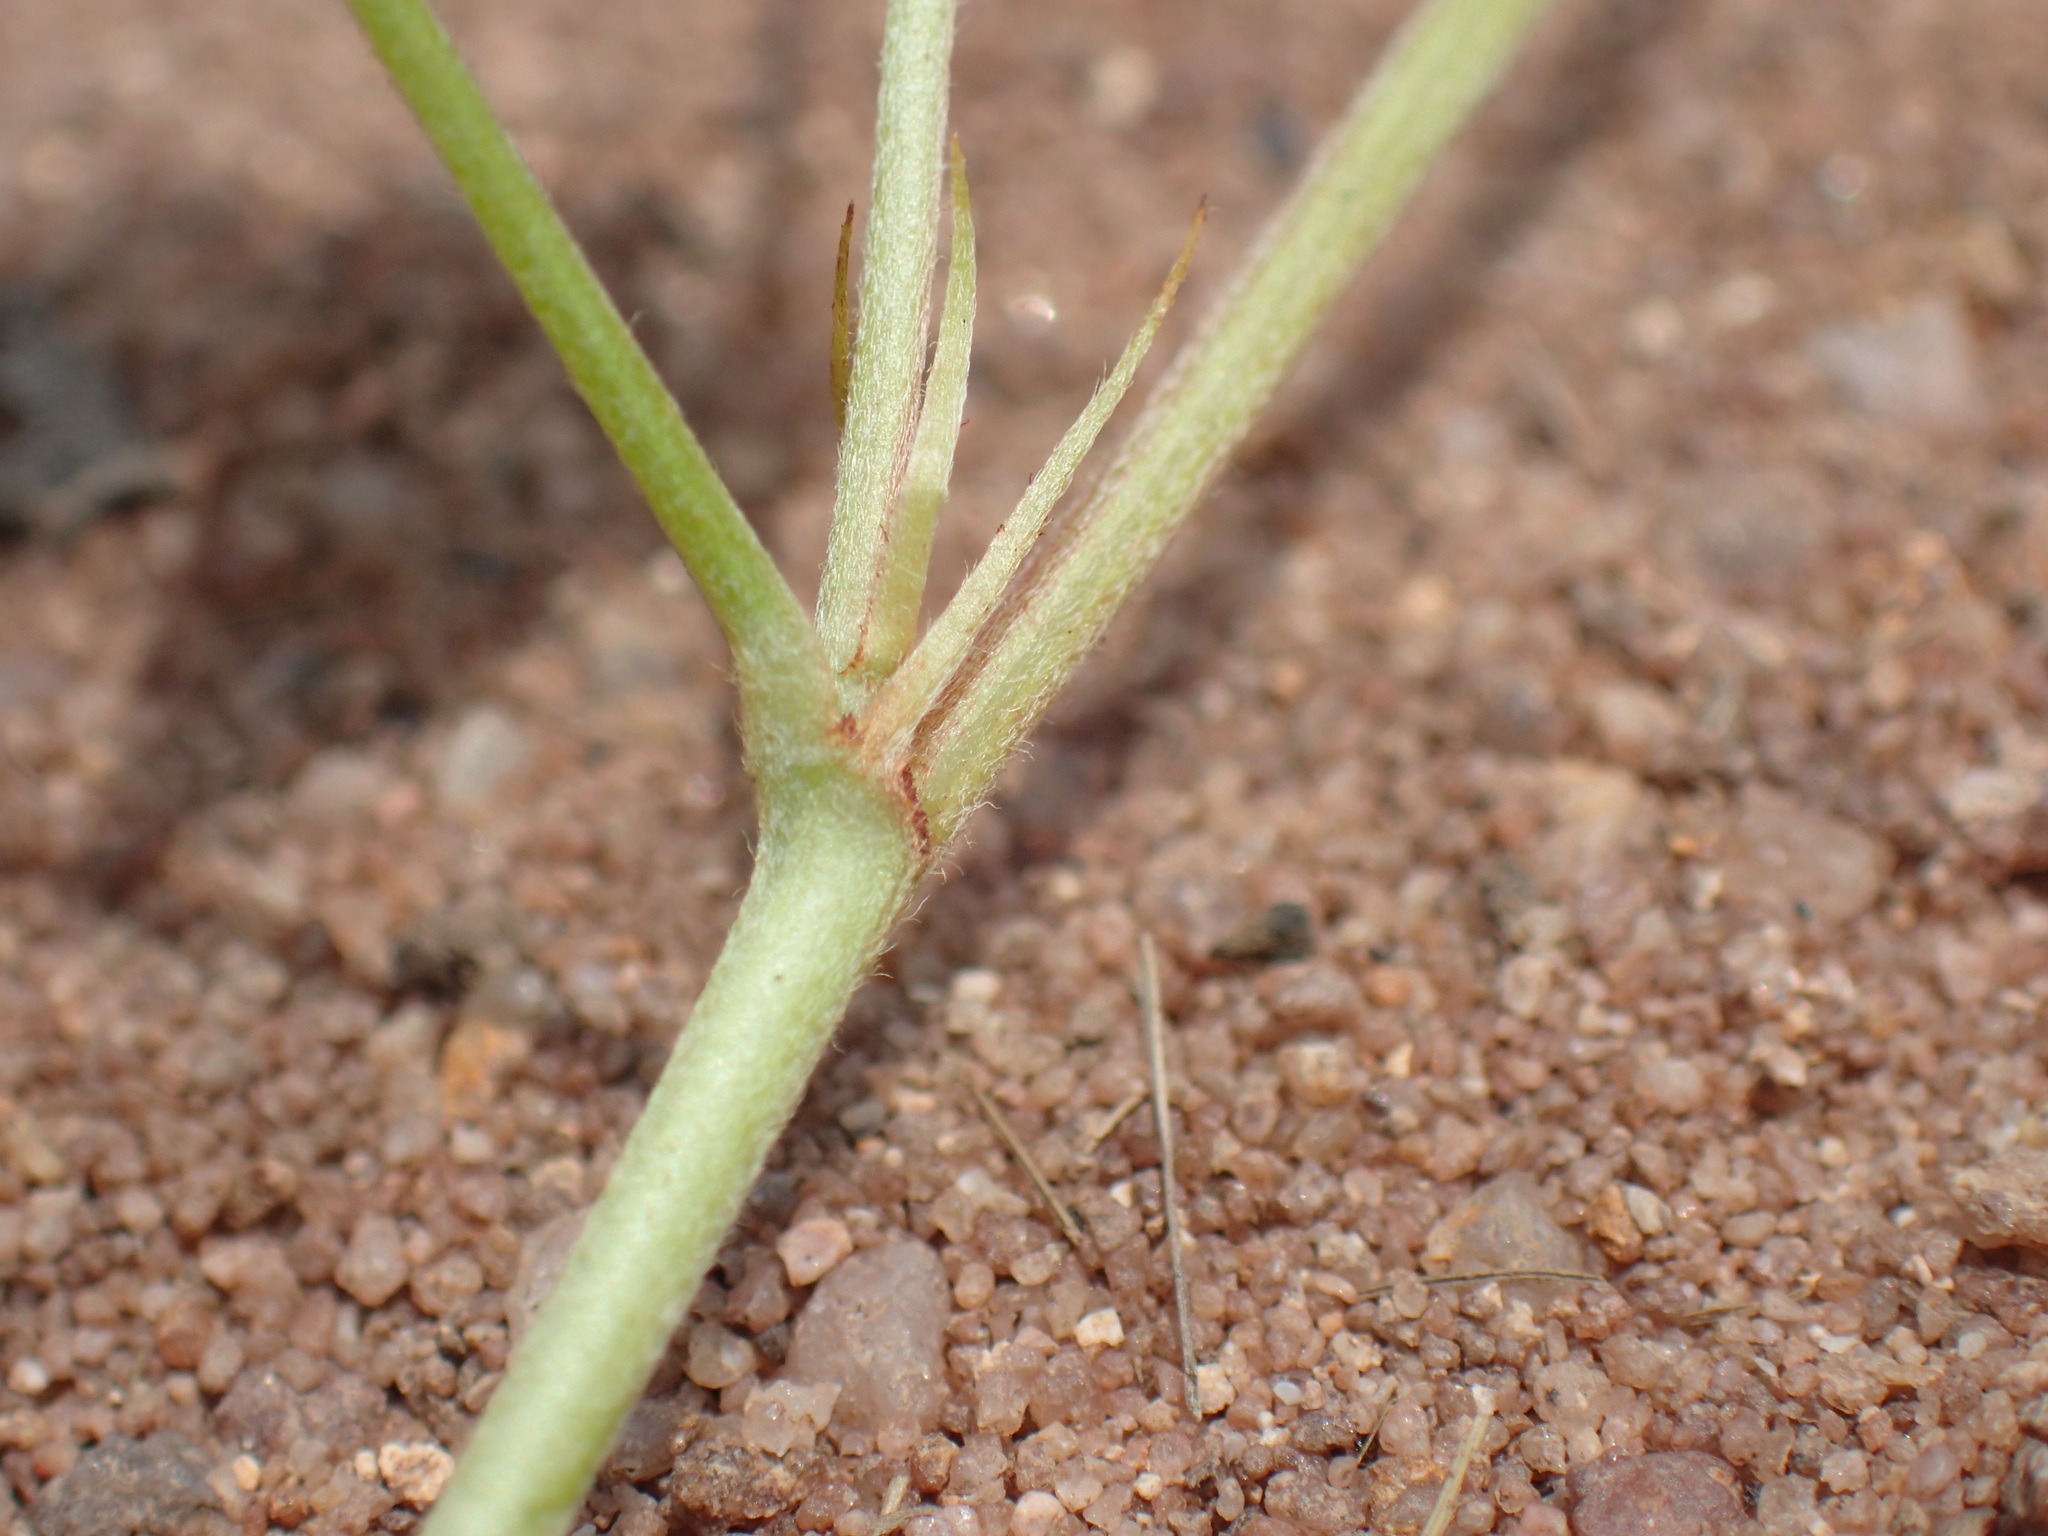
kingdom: Plantae
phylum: Tracheophyta
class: Magnoliopsida
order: Fabales
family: Fabaceae
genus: Indigofera
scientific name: Indigofera eriocarpa
